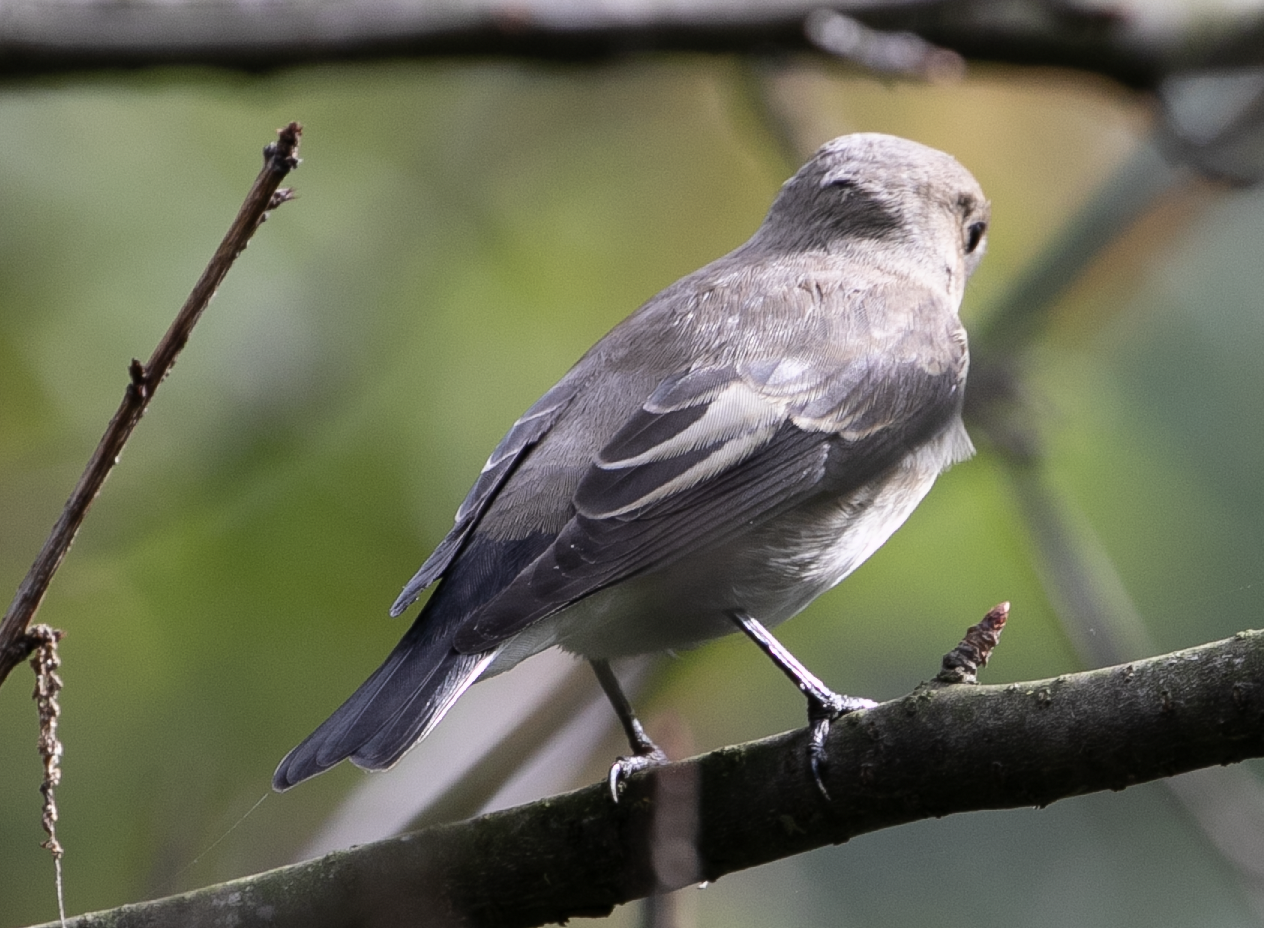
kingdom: Animalia
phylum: Chordata
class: Aves
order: Passeriformes
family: Muscicapidae
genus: Ficedula
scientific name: Ficedula hypoleuca
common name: European pied flycatcher
